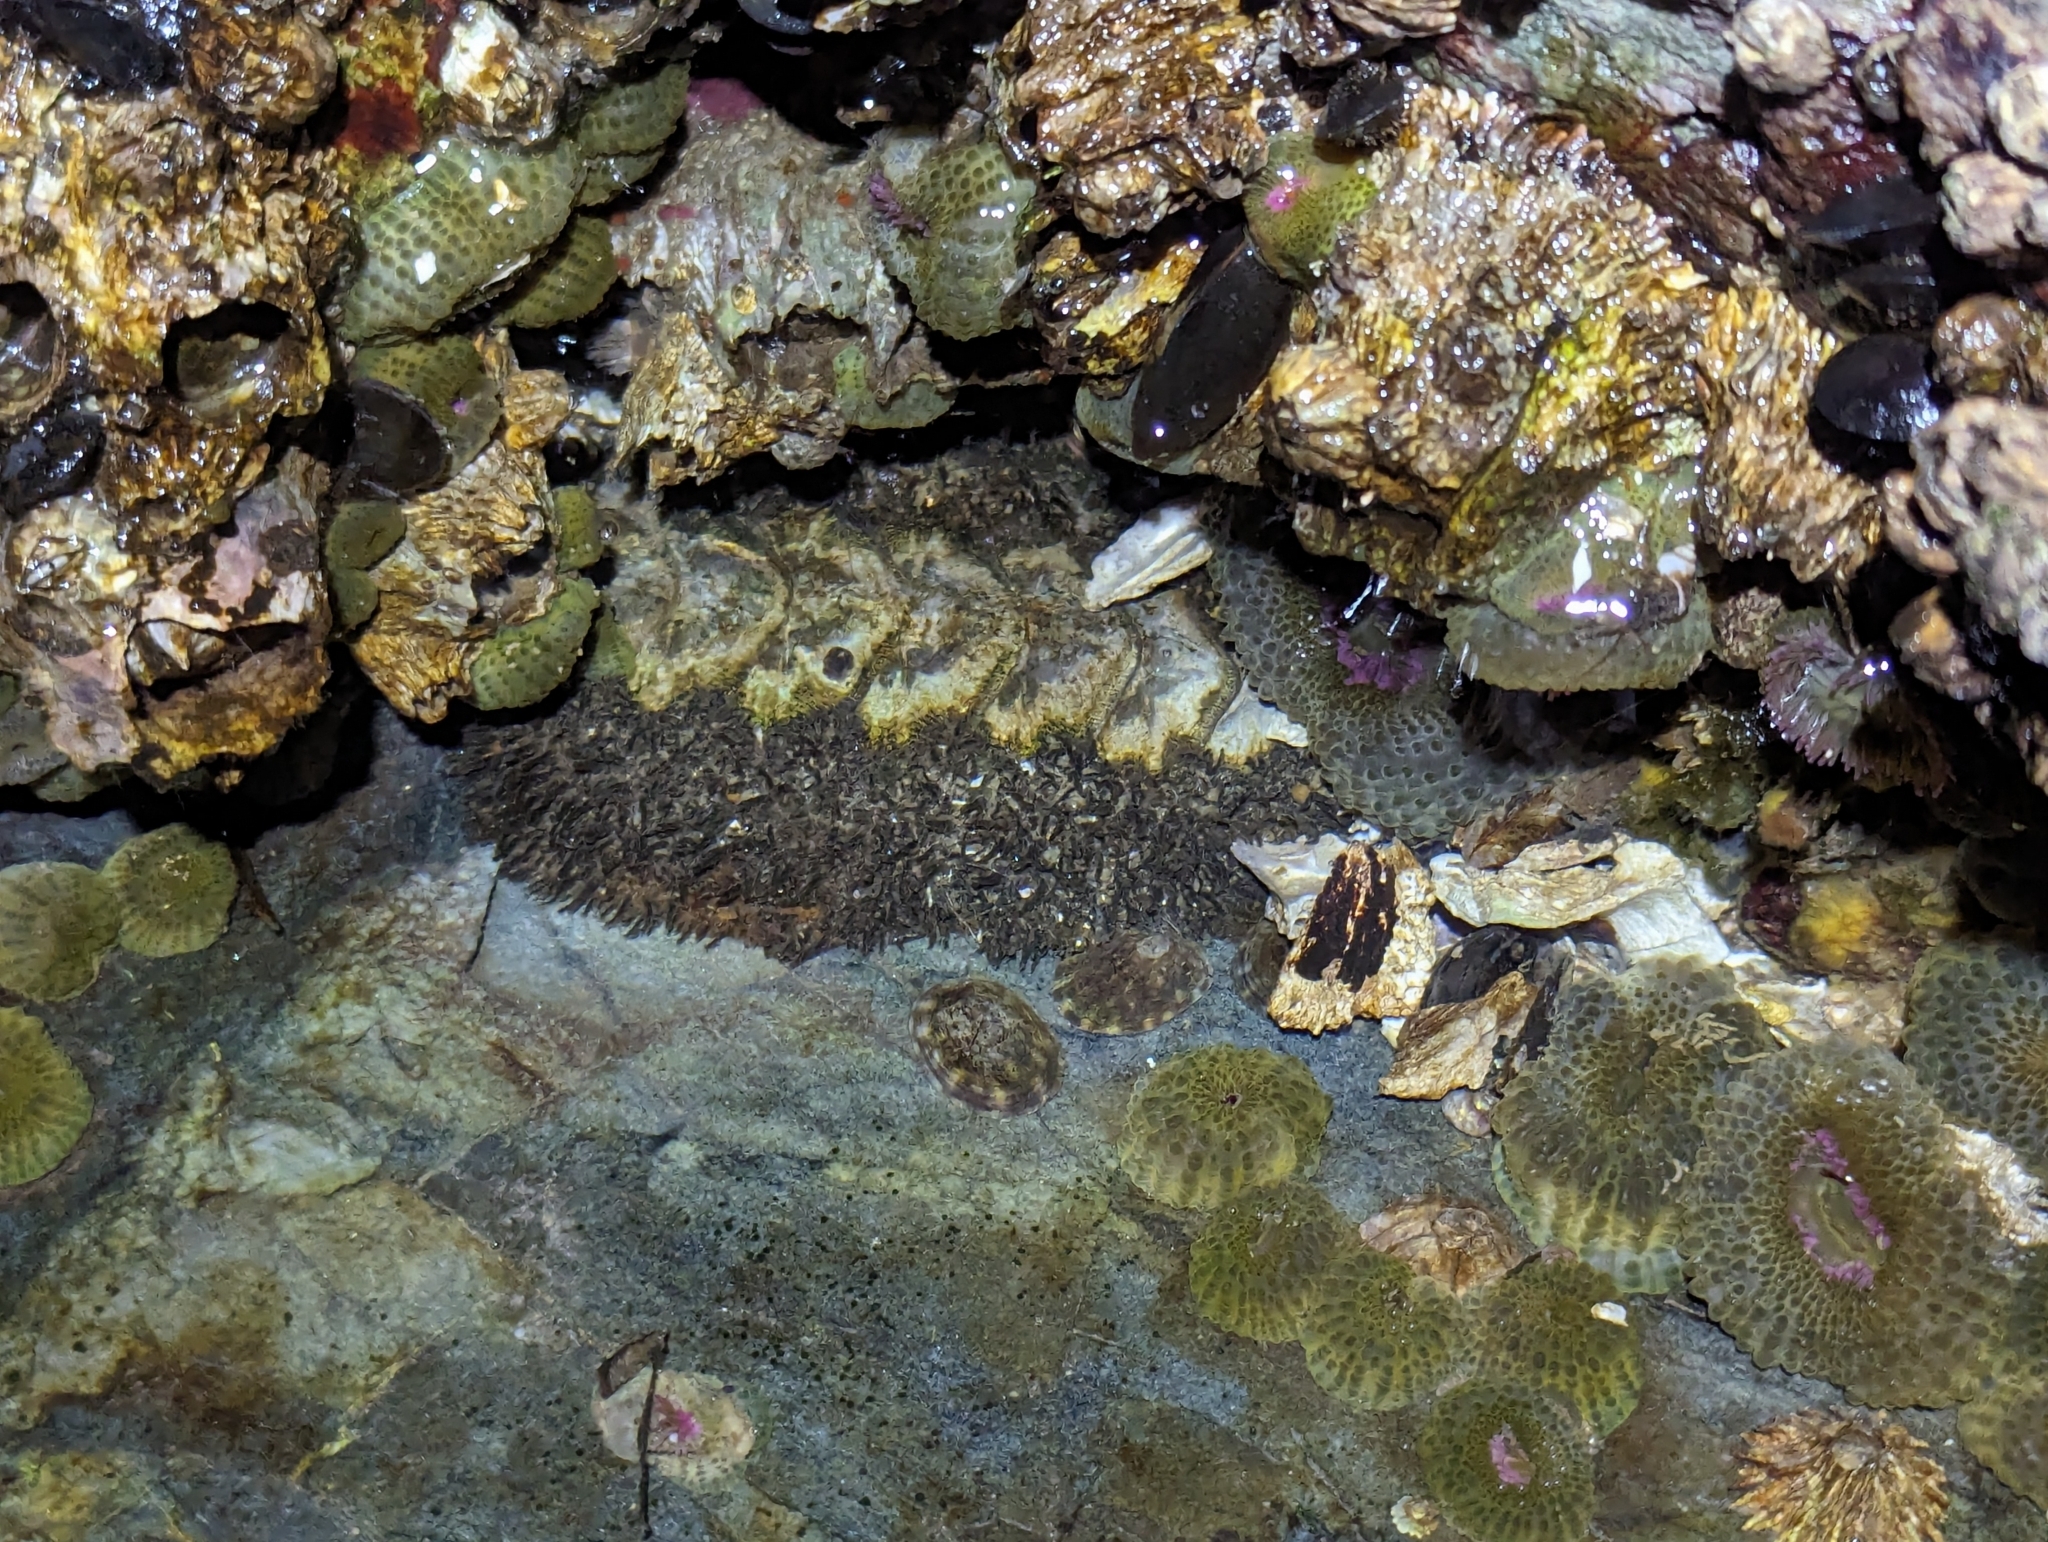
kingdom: Animalia
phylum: Mollusca
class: Polyplacophora
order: Chitonida
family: Mopaliidae
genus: Mopalia
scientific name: Mopalia muscosa
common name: Mossy chiton
